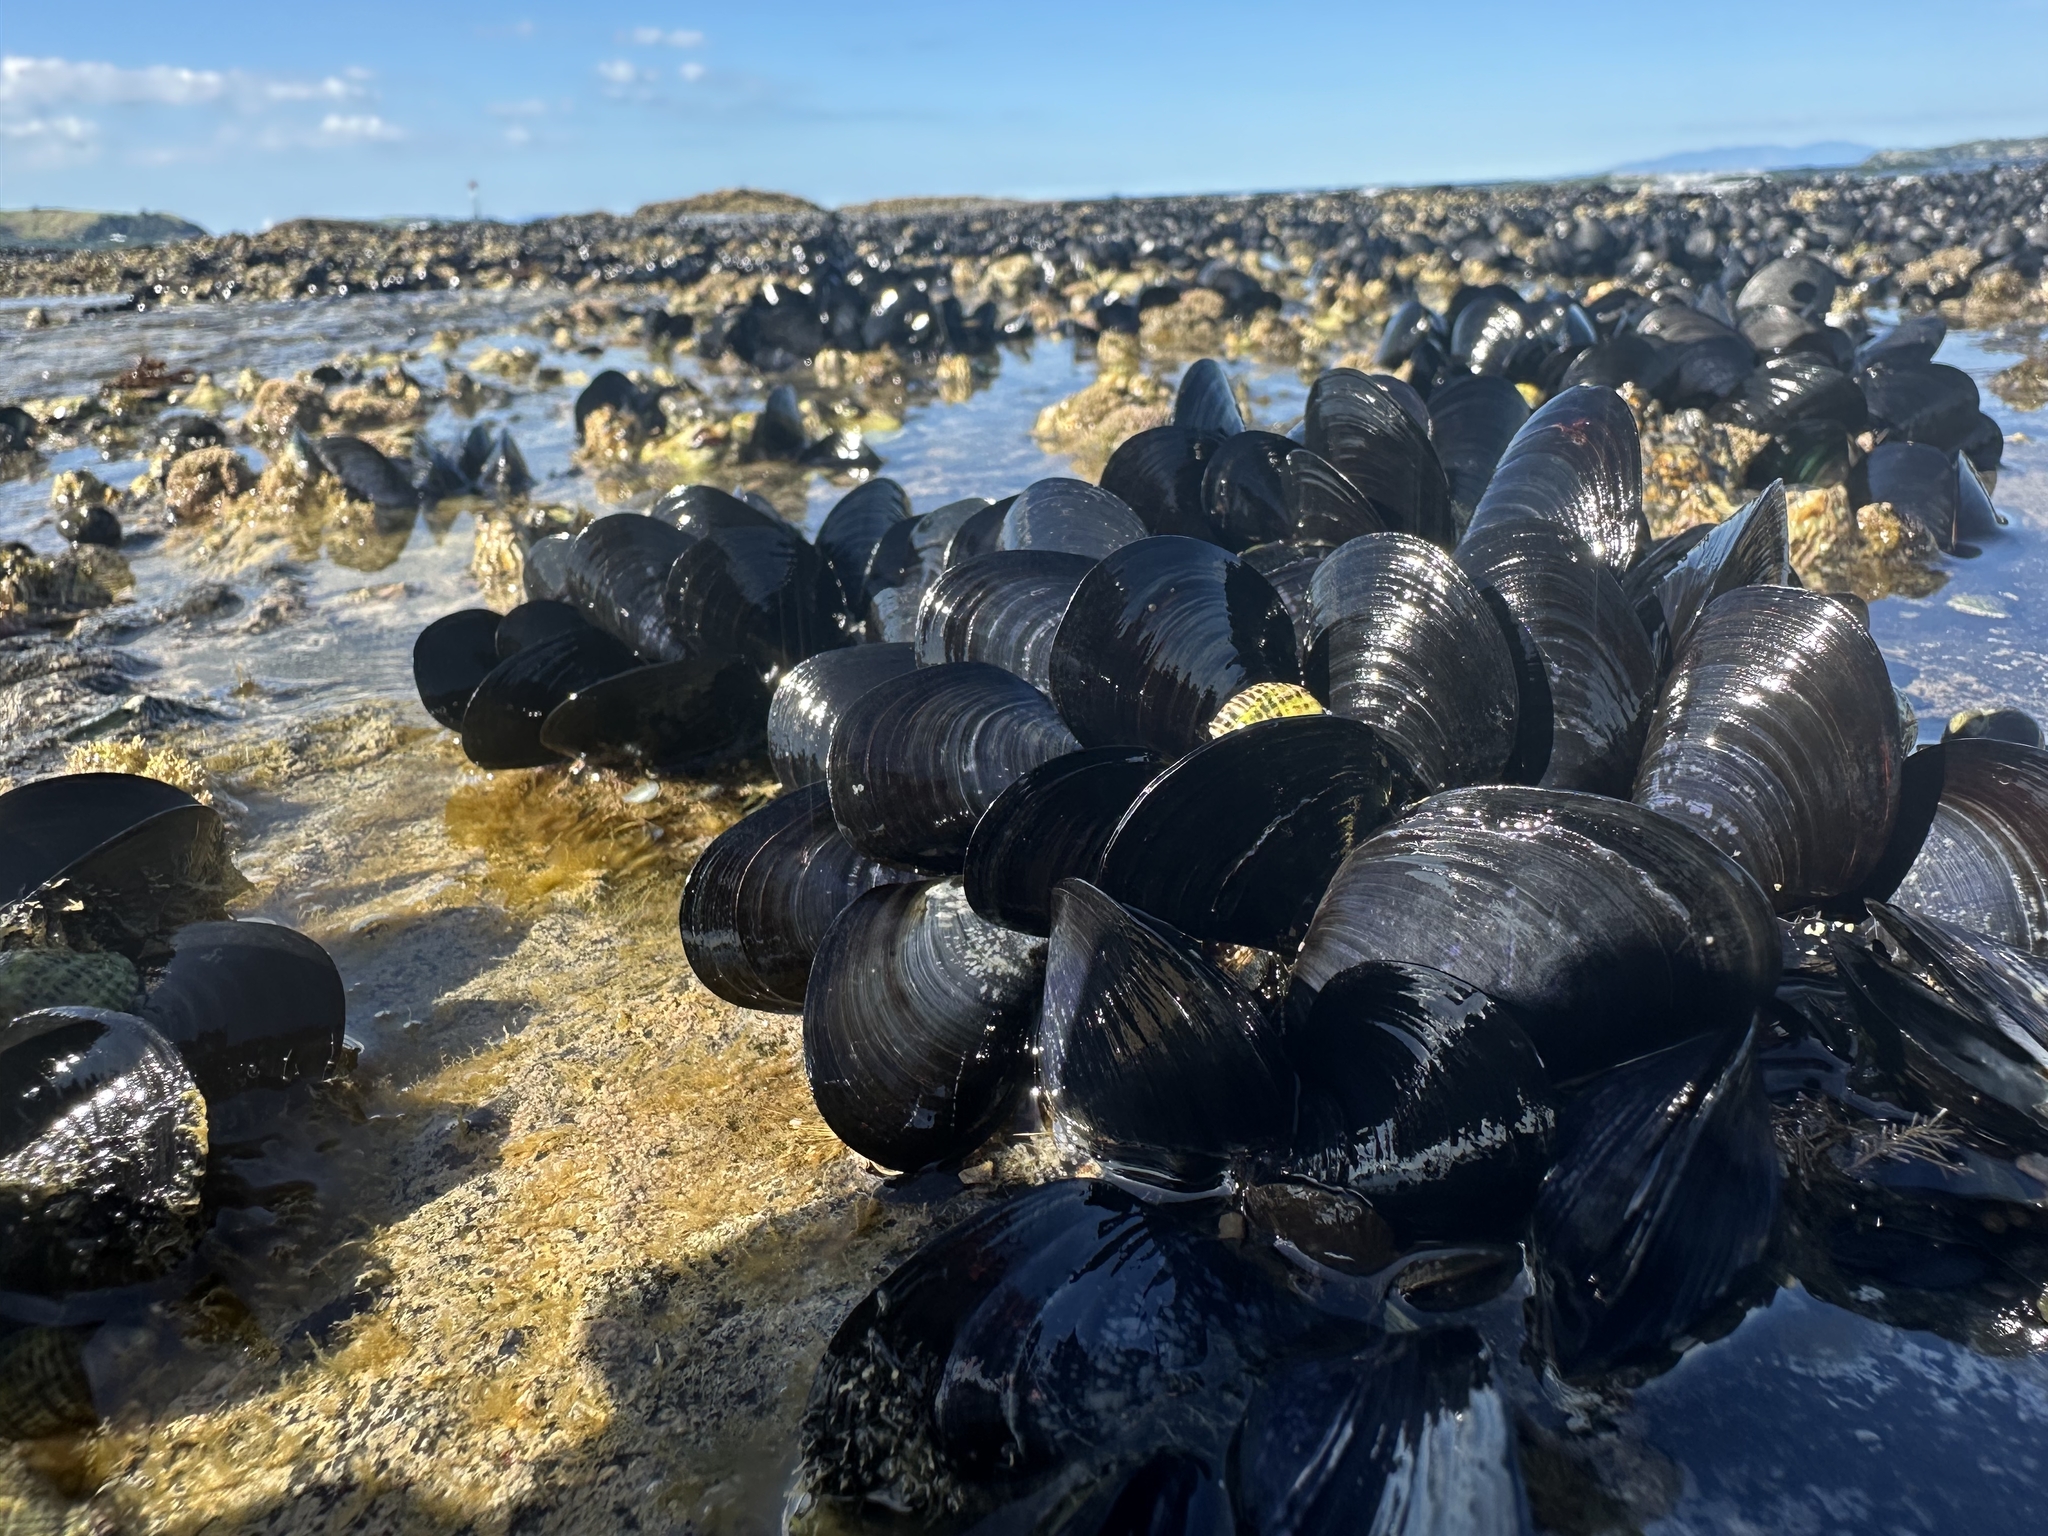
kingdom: Animalia
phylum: Mollusca
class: Bivalvia
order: Mytilida
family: Mytilidae
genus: Mytilus
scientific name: Mytilus planulatus
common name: Australian mussel
